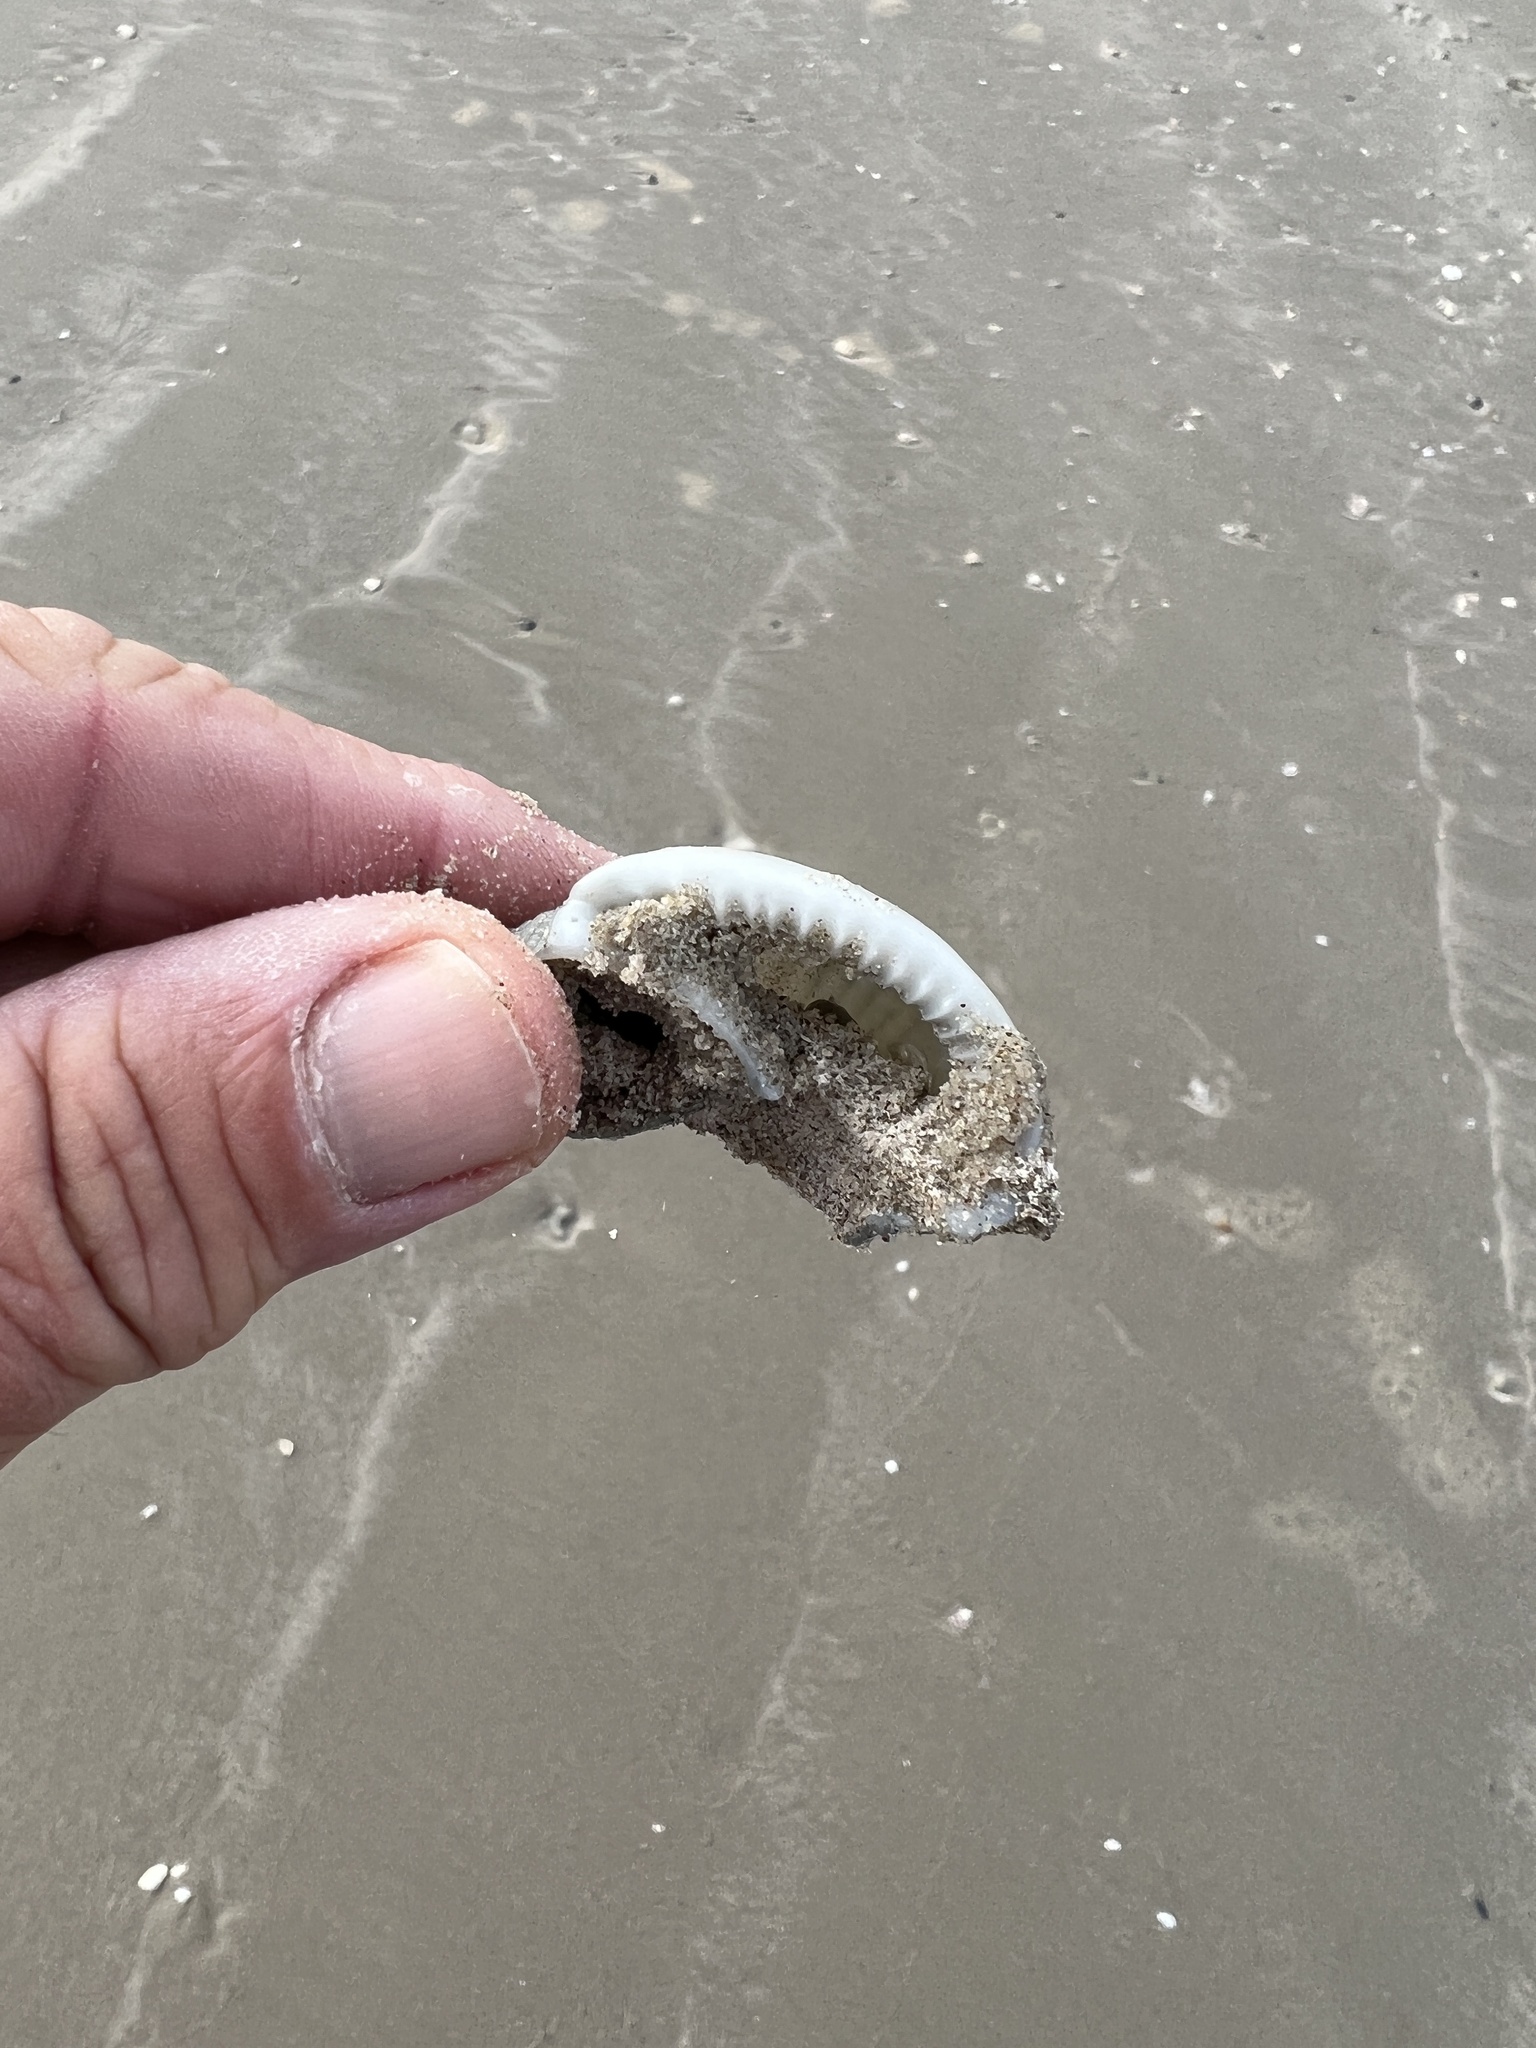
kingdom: Animalia
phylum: Mollusca
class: Gastropoda
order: Littorinimorpha
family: Cassidae
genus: Semicassis
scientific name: Semicassis granulata
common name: Scotch bonnet
